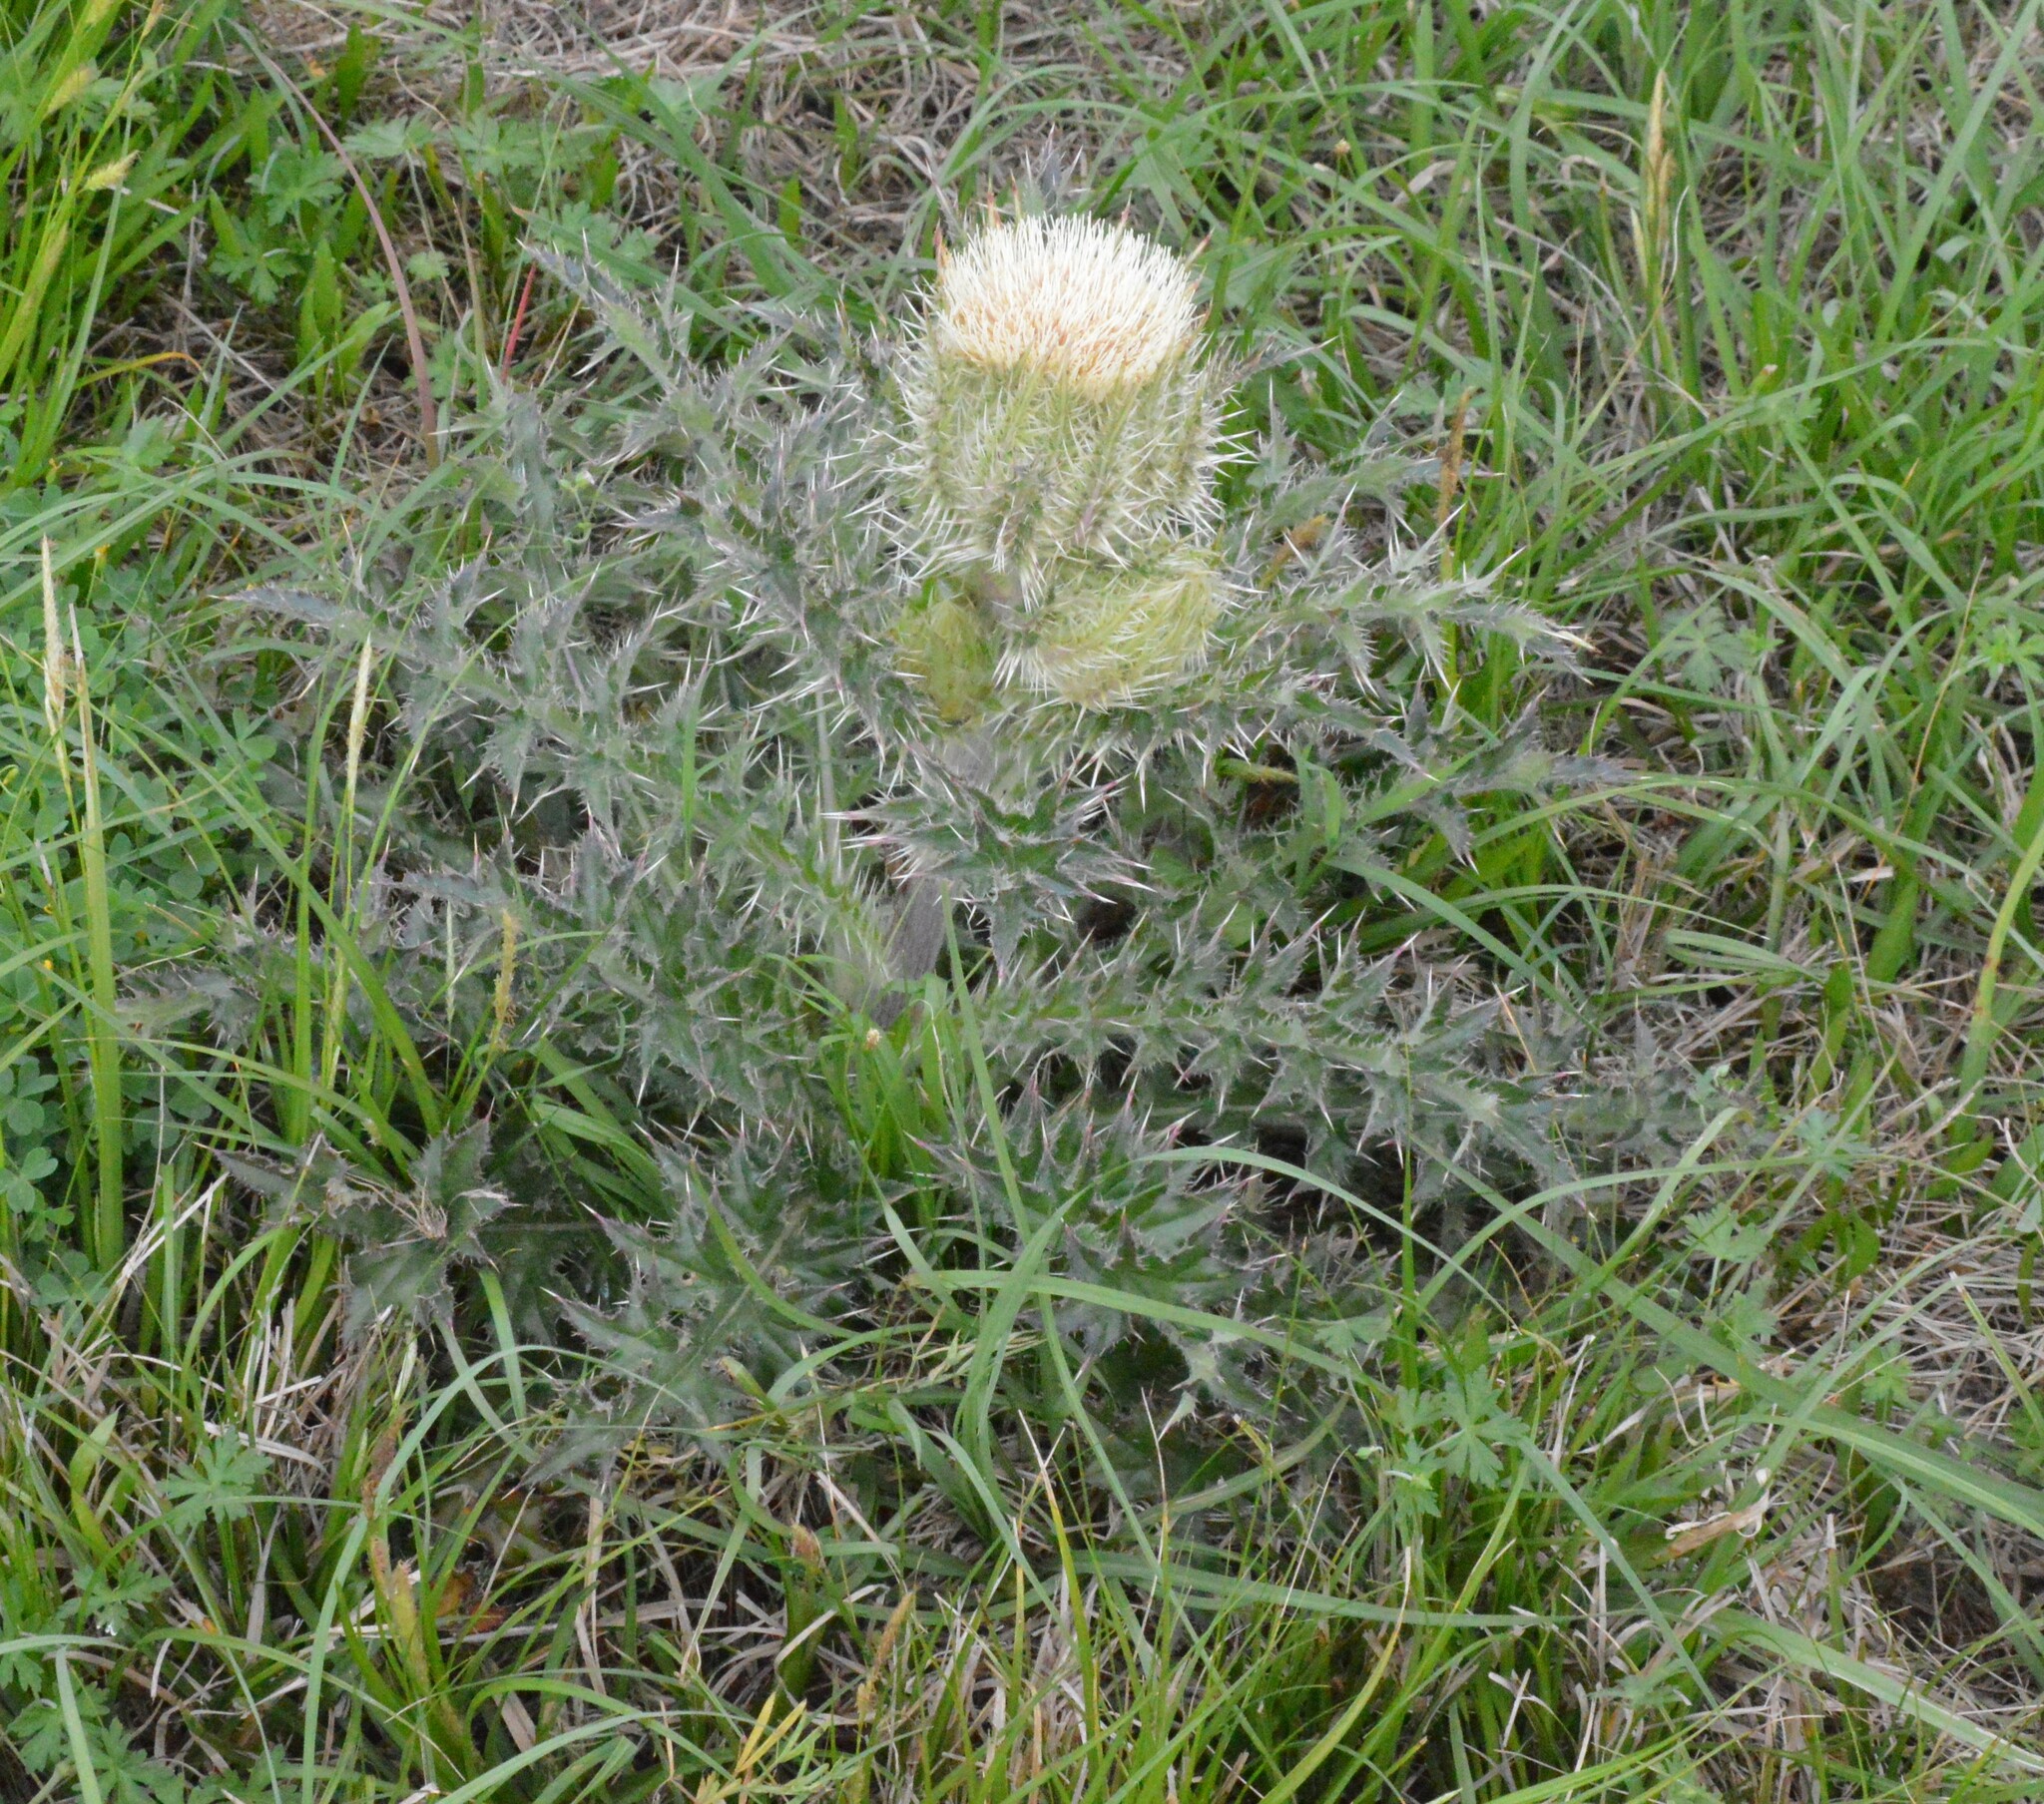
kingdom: Plantae
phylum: Tracheophyta
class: Magnoliopsida
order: Asterales
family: Asteraceae
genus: Cirsium
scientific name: Cirsium horridulum
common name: Bristly thistle
